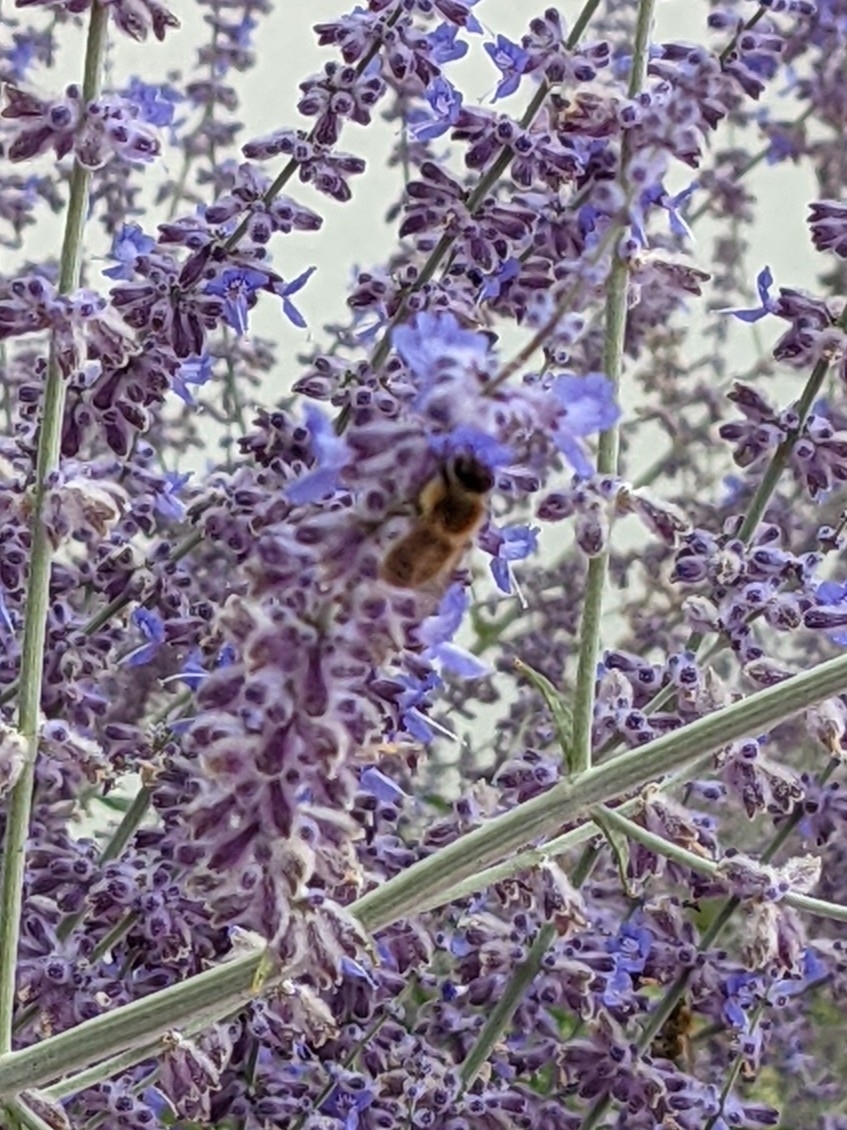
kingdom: Animalia
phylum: Arthropoda
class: Insecta
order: Hymenoptera
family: Apidae
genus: Apis
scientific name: Apis mellifera
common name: Honey bee
